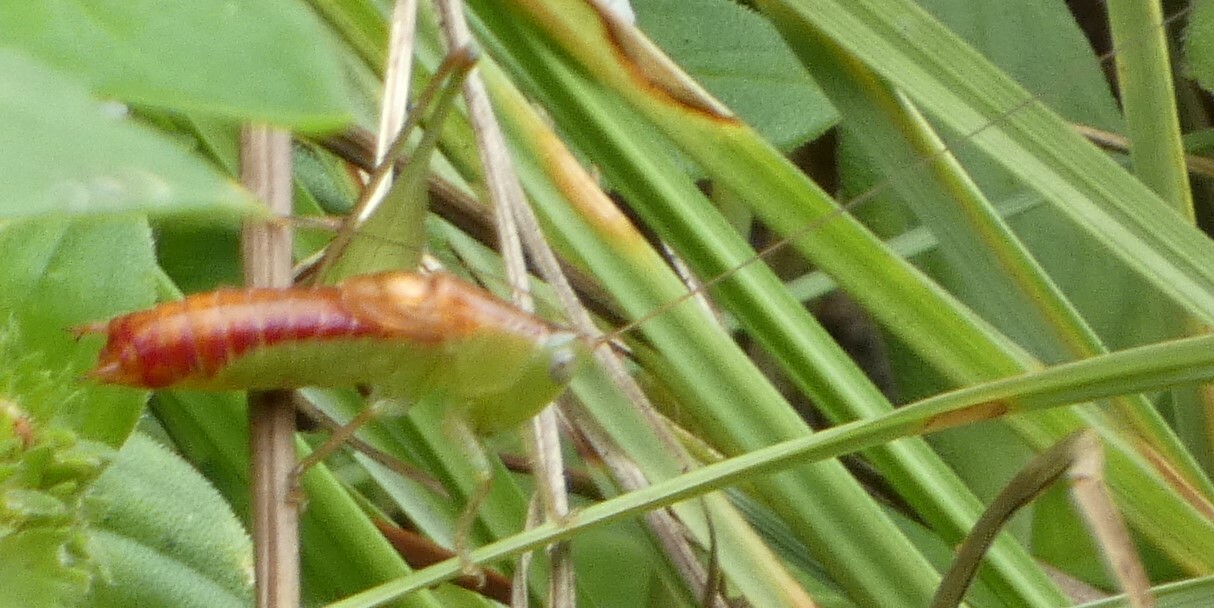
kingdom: Animalia
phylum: Arthropoda
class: Insecta
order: Orthoptera
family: Tettigoniidae
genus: Odontoxiphidium
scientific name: Odontoxiphidium apterum
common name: Wingless meadow katydid
